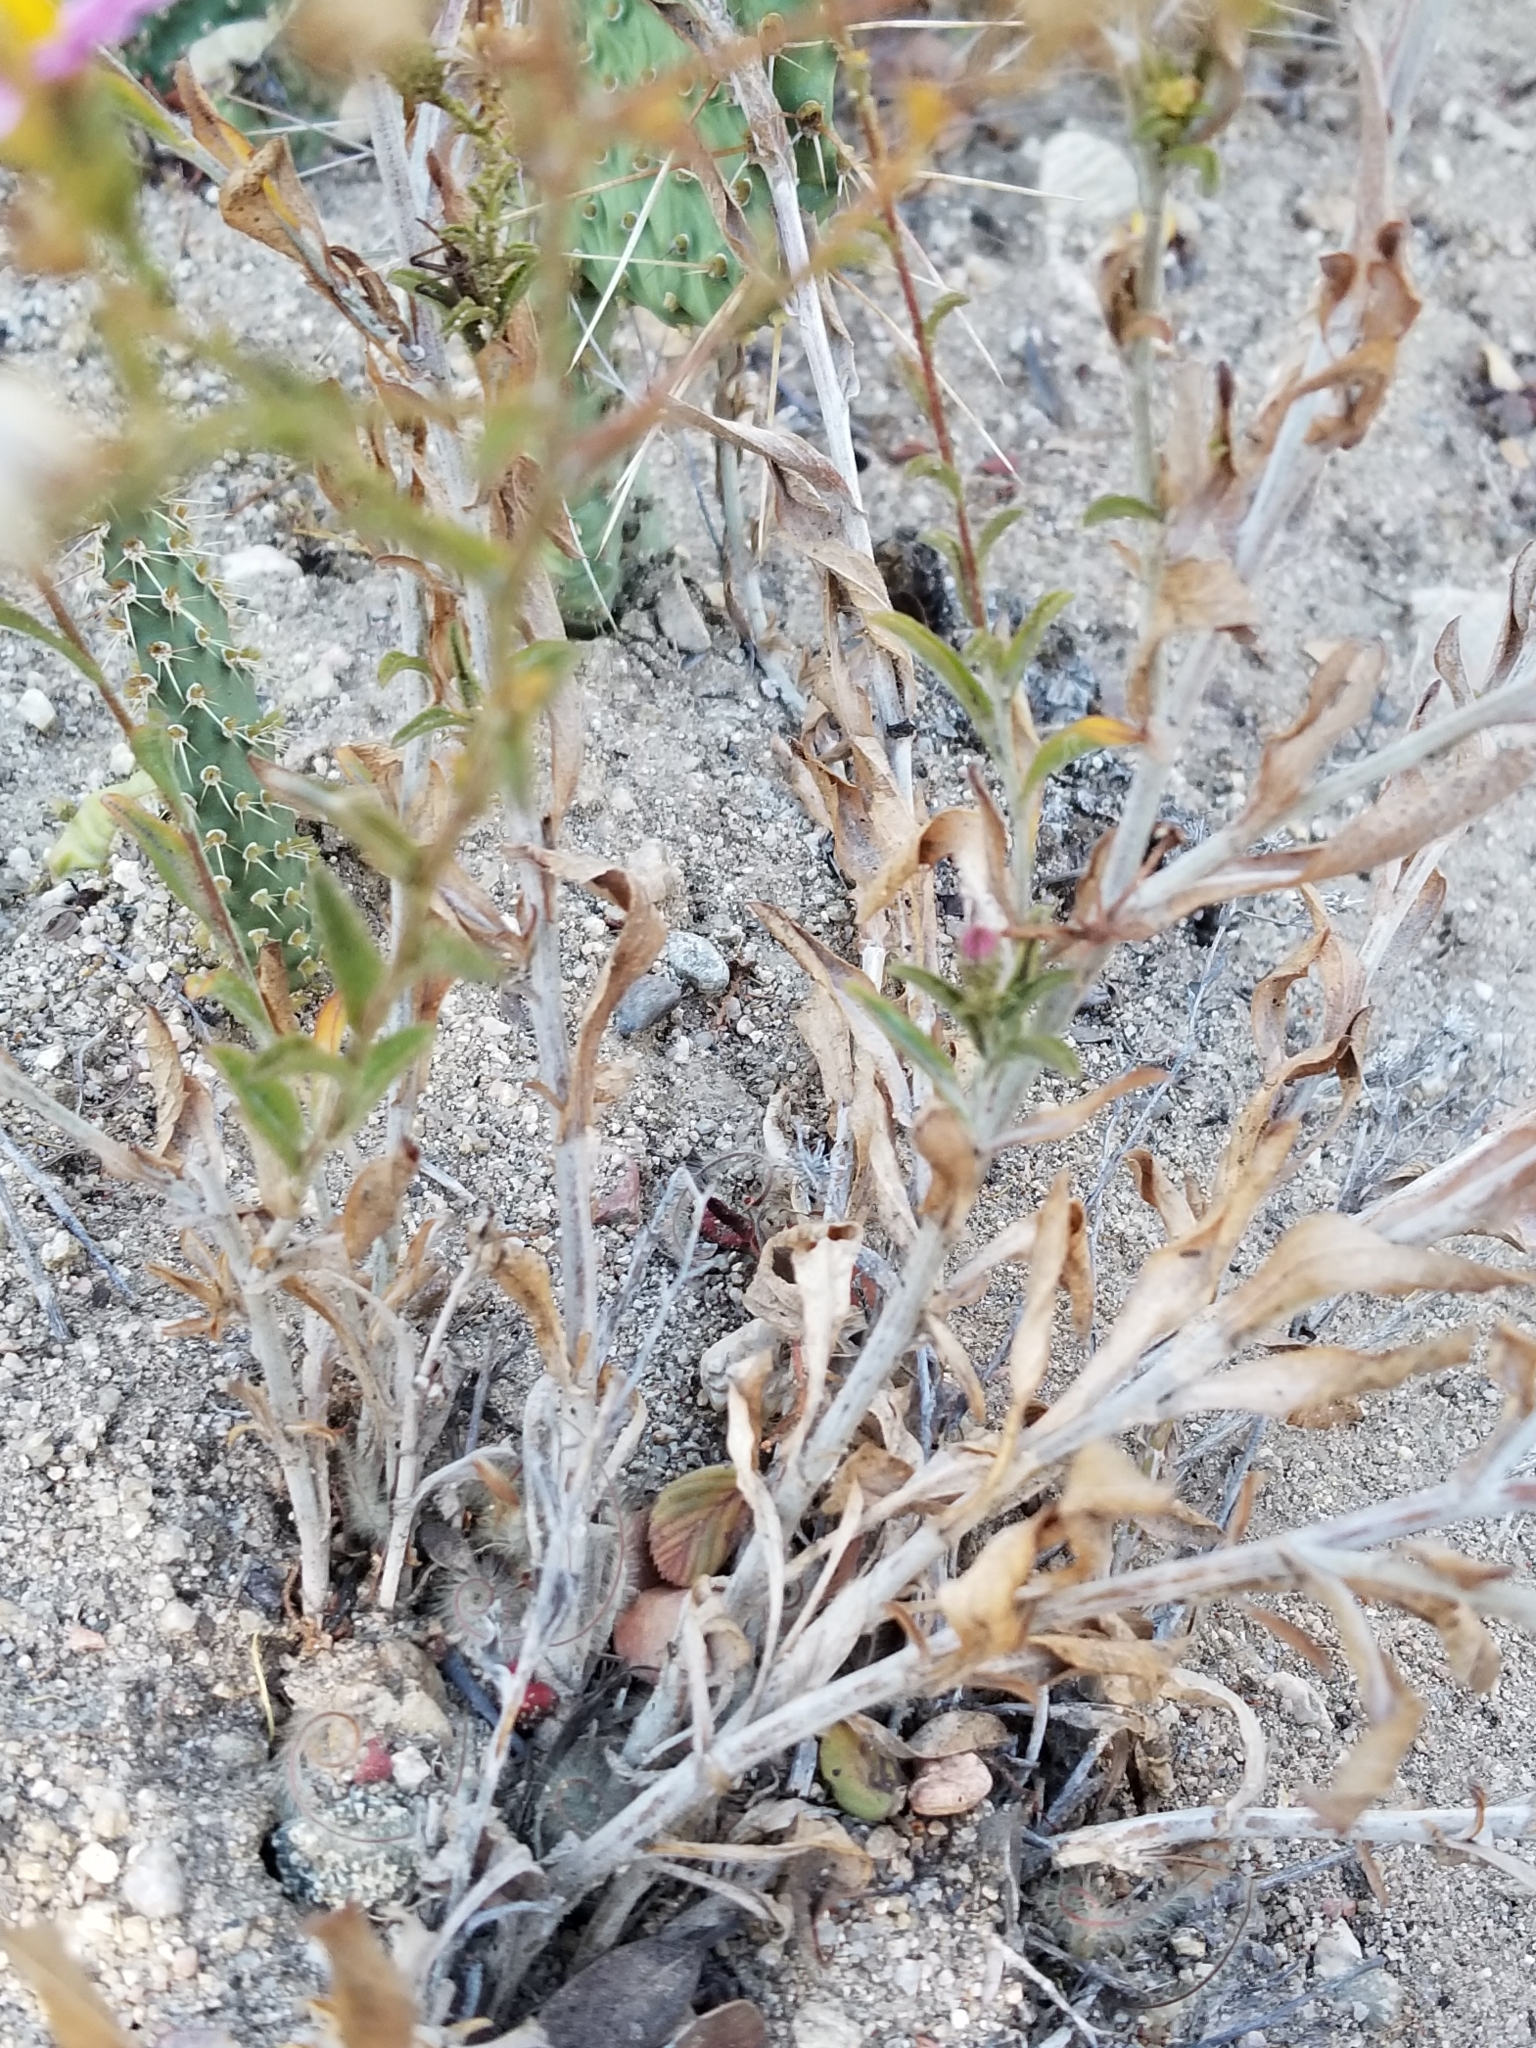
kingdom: Plantae
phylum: Tracheophyta
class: Magnoliopsida
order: Asterales
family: Asteraceae
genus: Corethrogyne
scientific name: Corethrogyne filaginifolia
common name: Sand-aster
